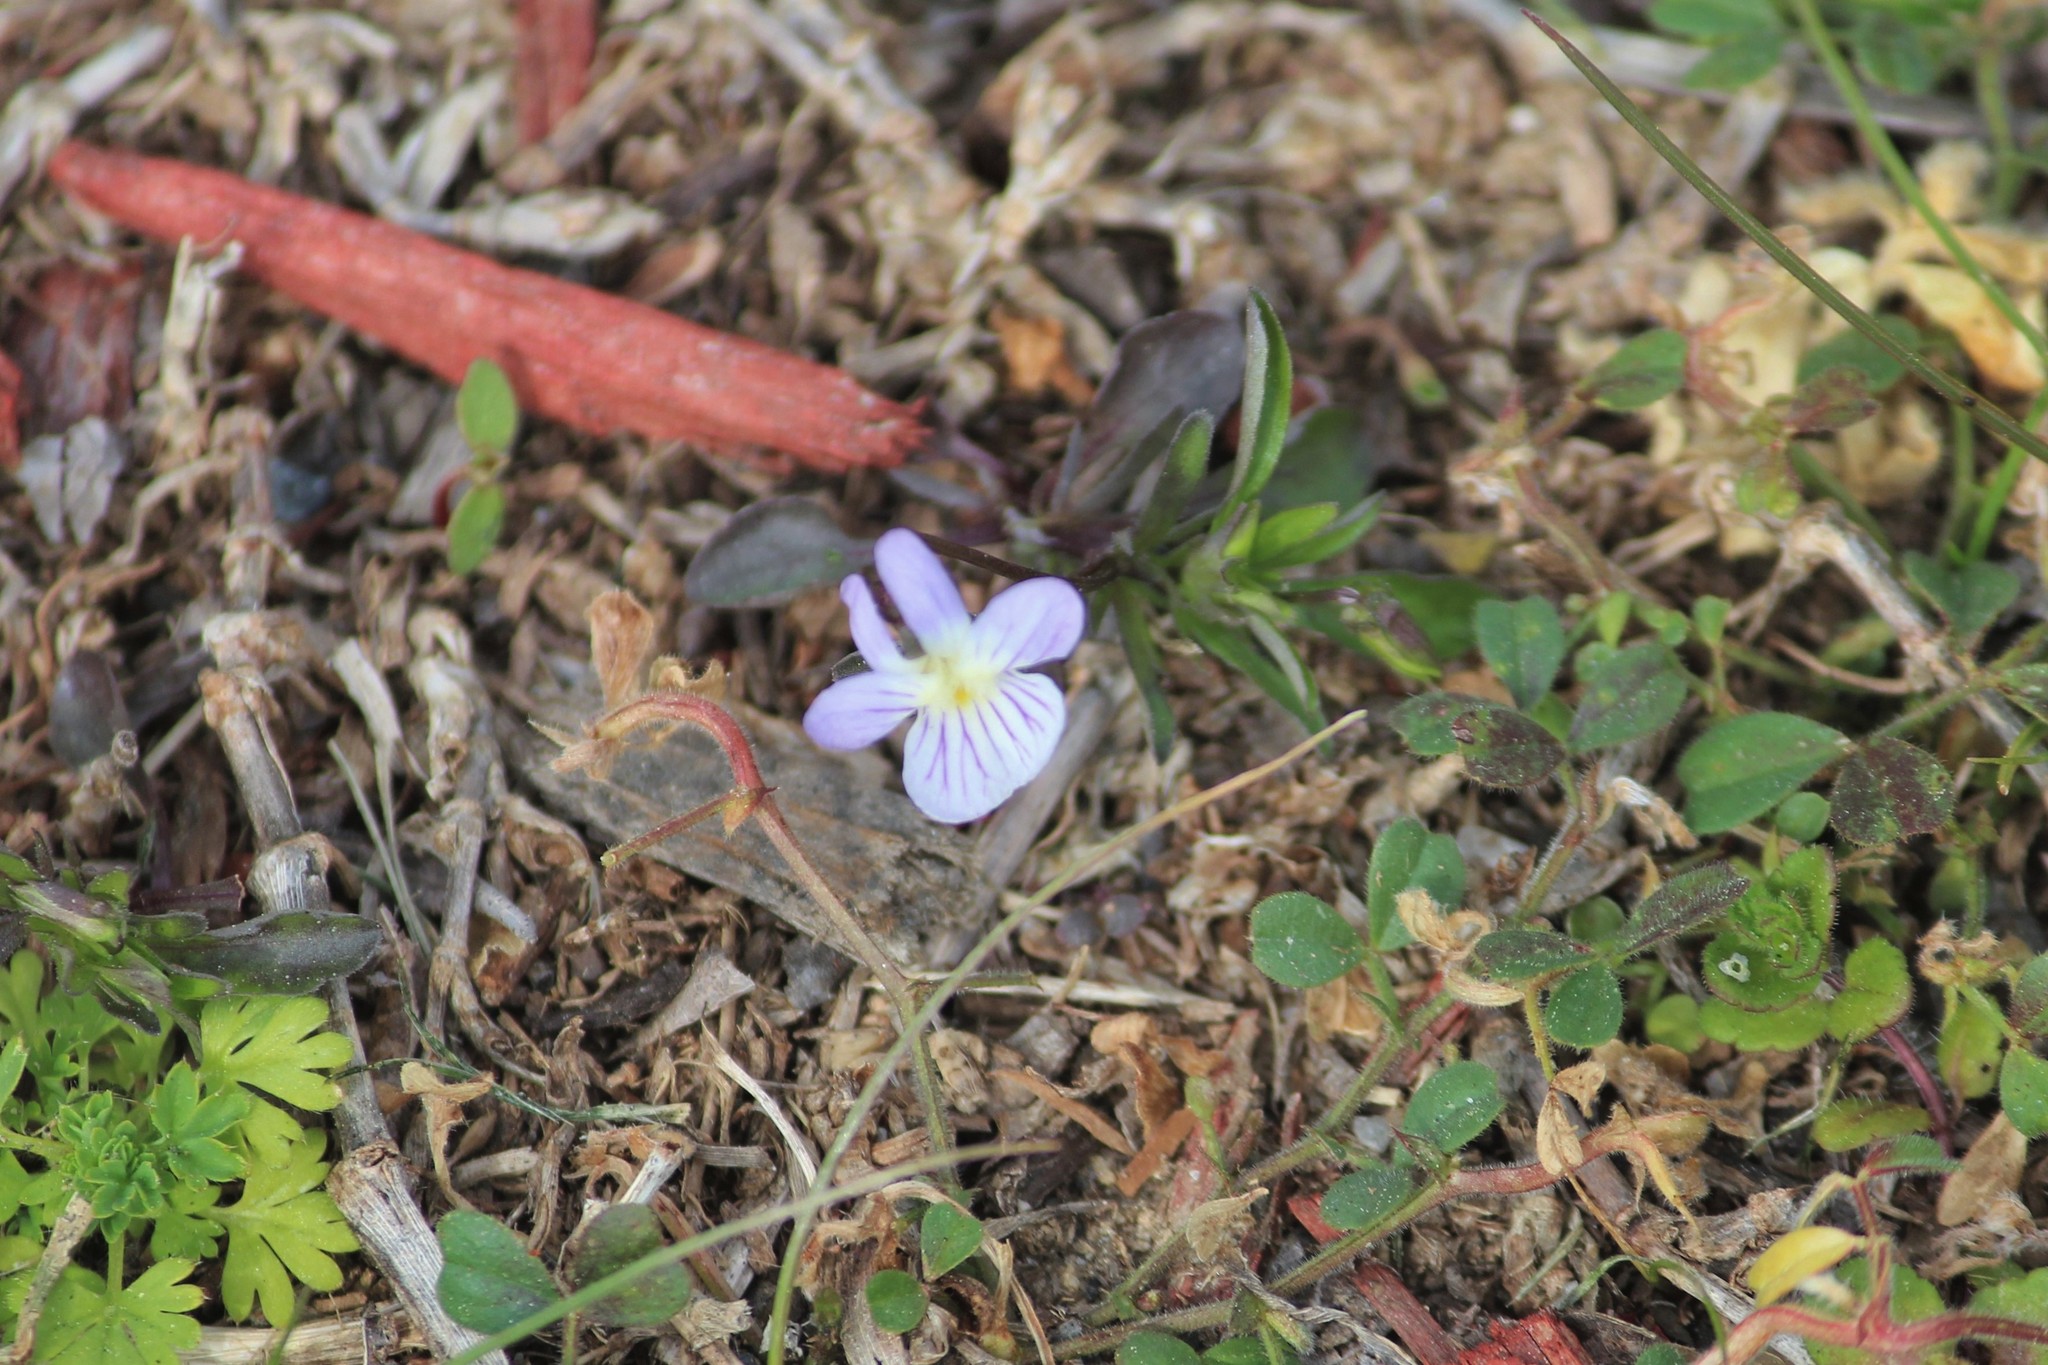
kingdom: Plantae
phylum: Tracheophyta
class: Magnoliopsida
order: Malpighiales
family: Violaceae
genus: Viola
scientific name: Viola rafinesquei
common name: American field pansy
